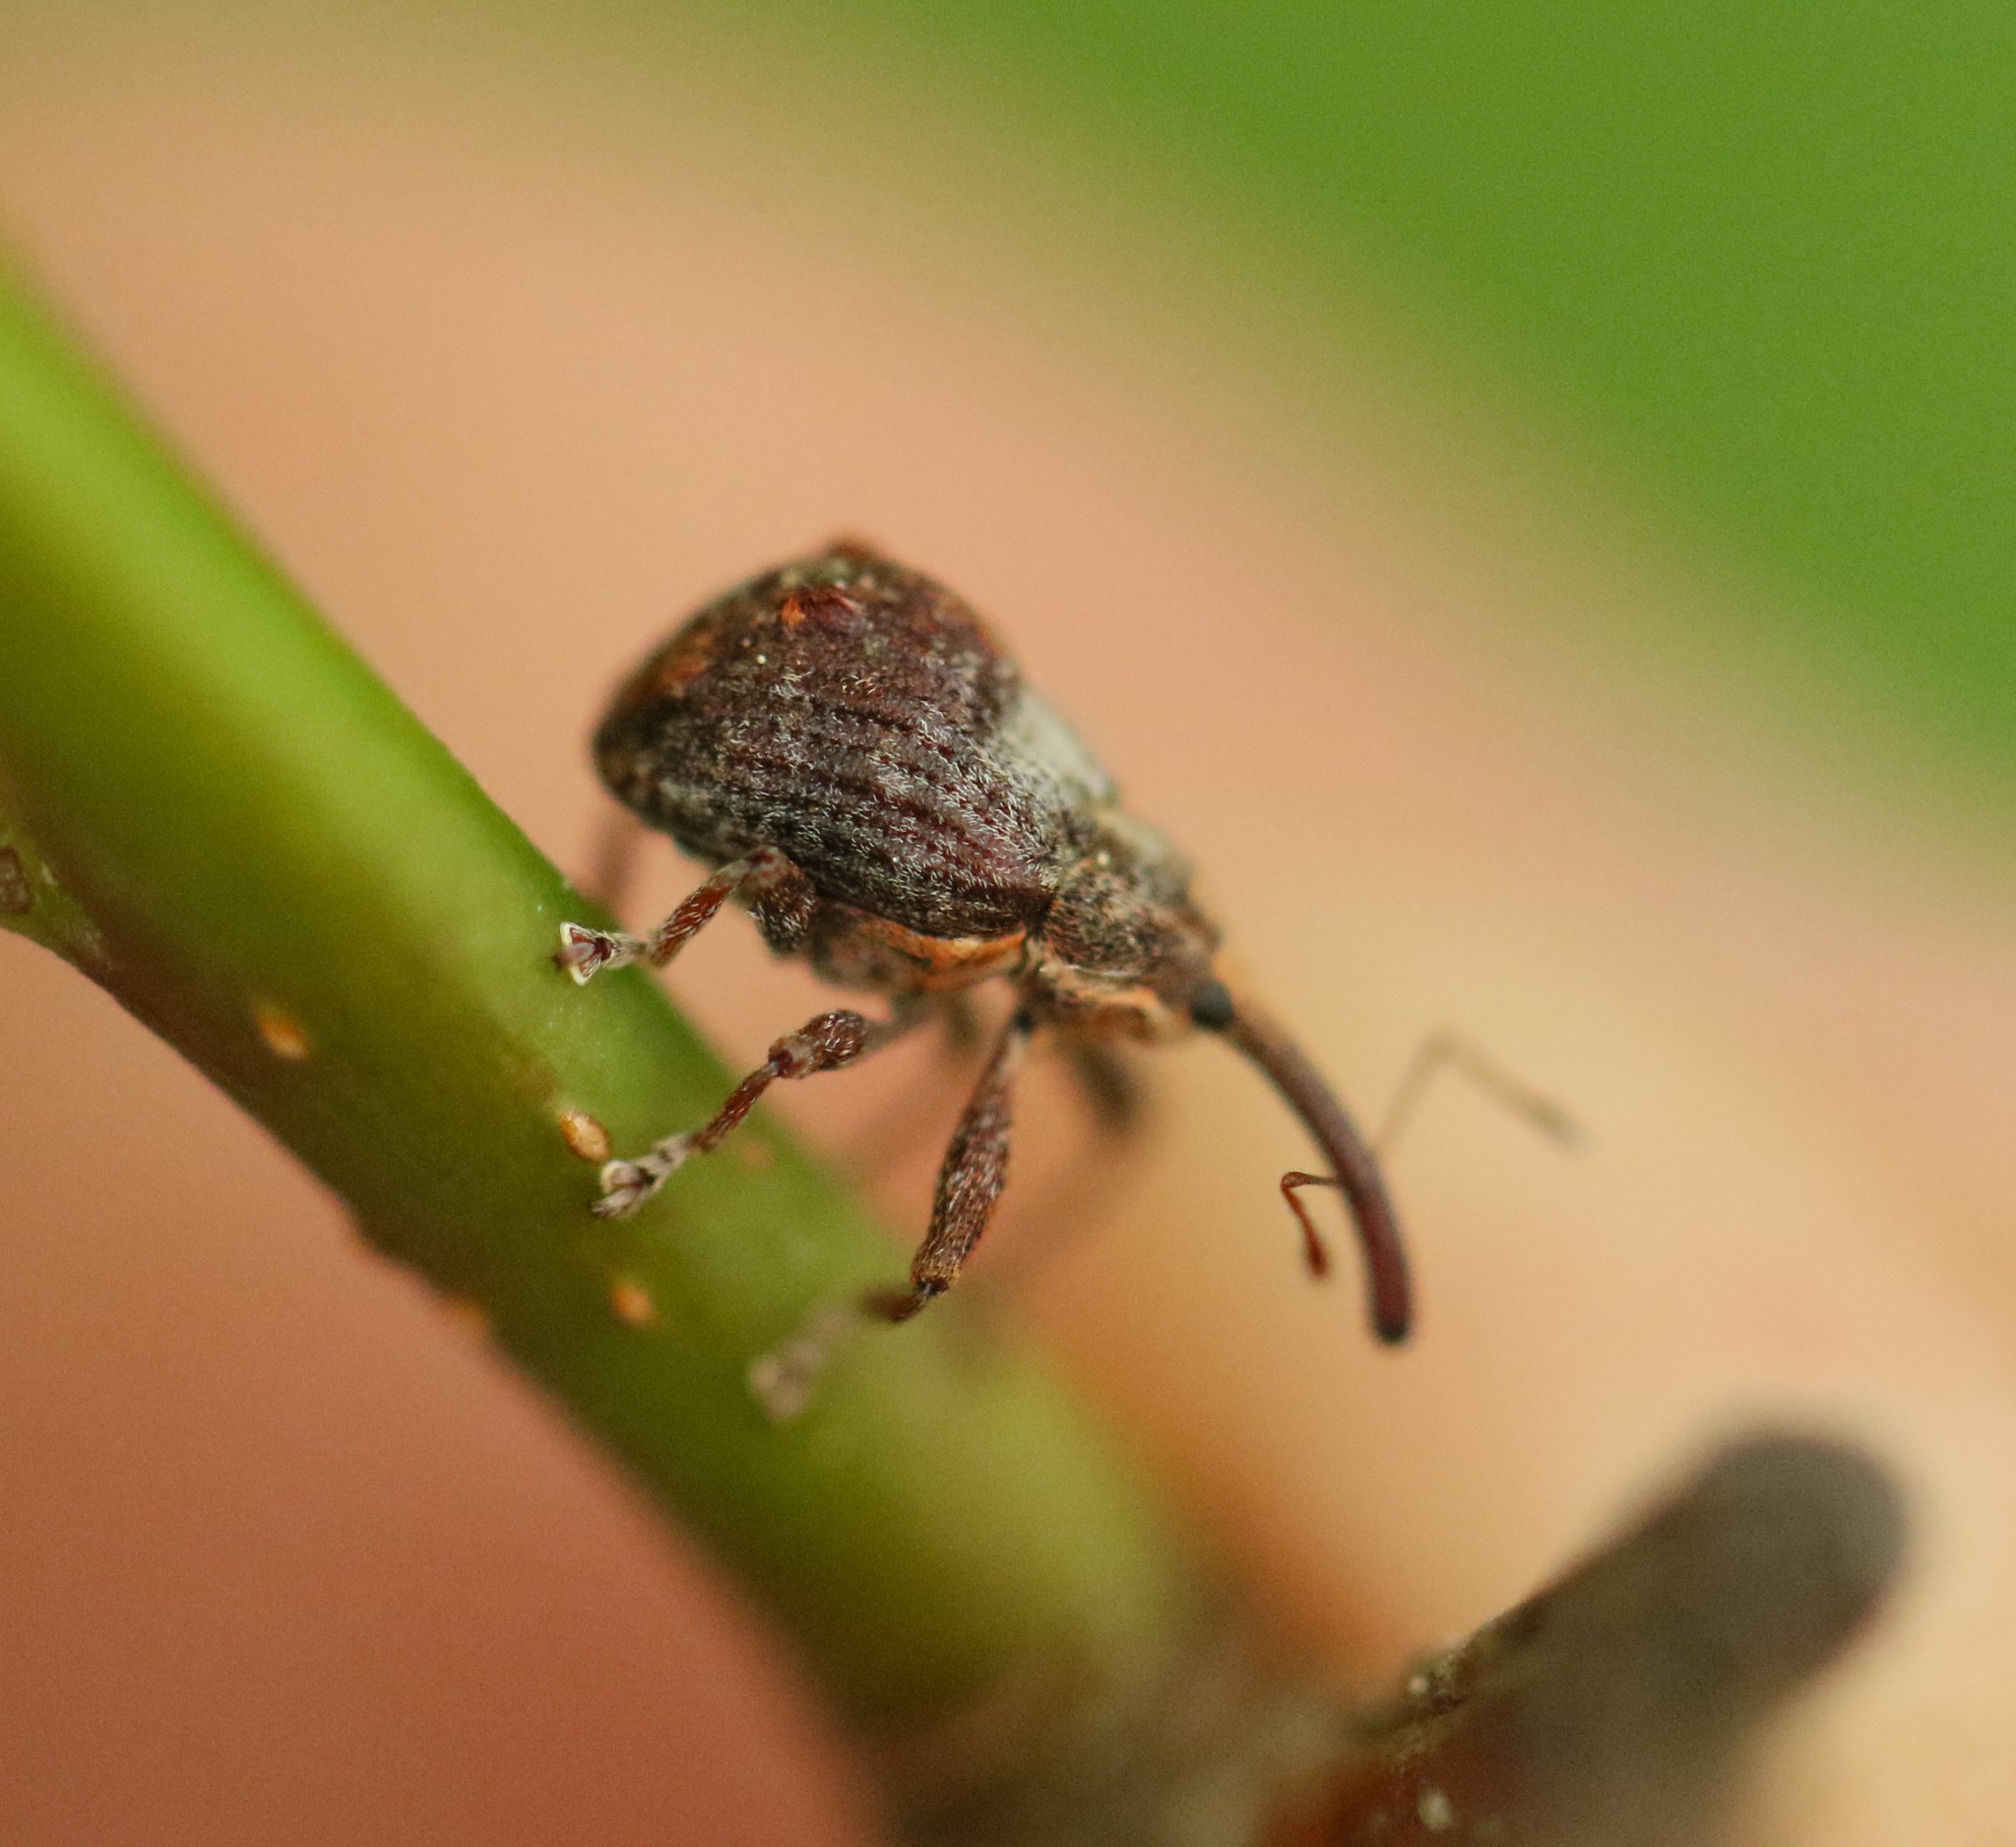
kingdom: Animalia
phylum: Arthropoda
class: Insecta
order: Coleoptera
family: Curculionidae
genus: Anthonomus
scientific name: Anthonomus quadrigibbus
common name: Apple curculio
